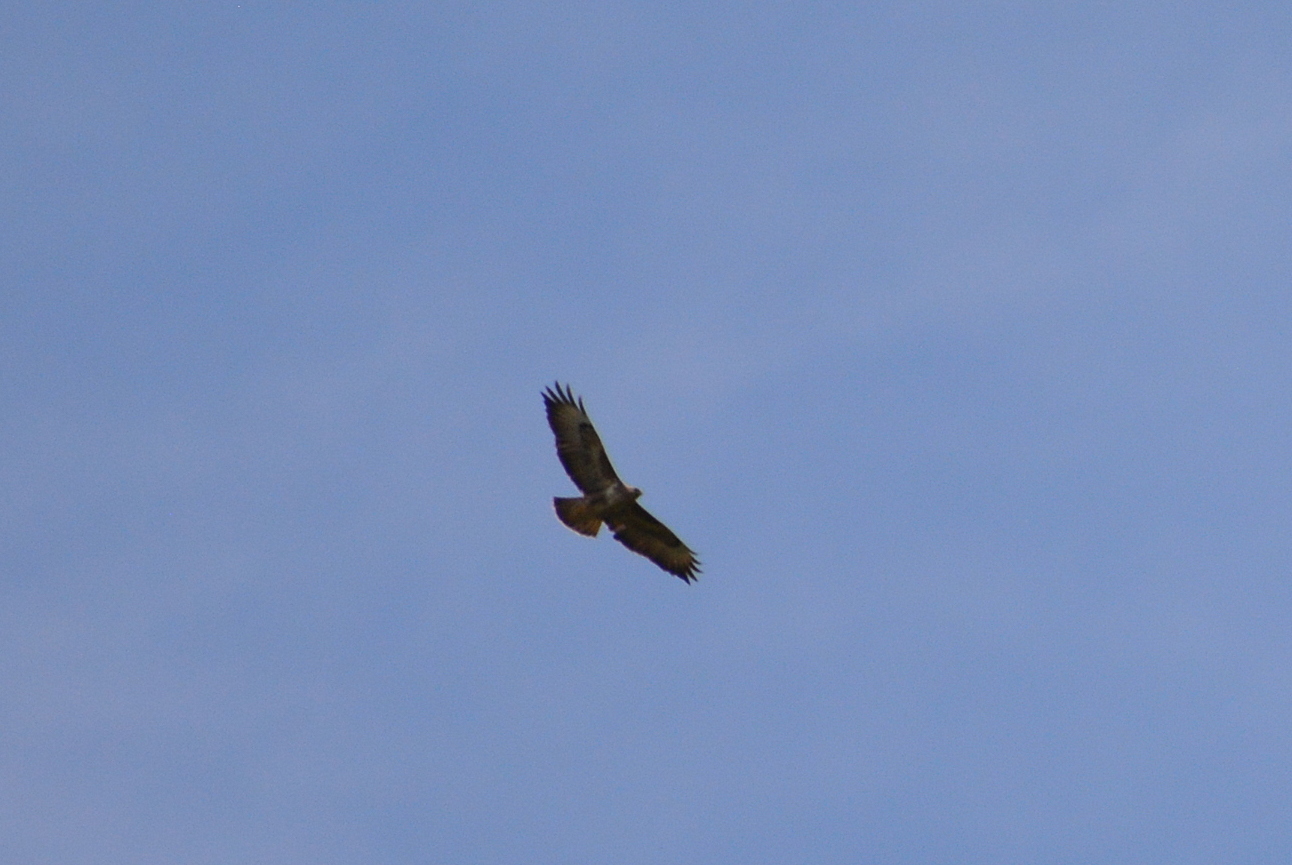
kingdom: Animalia
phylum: Chordata
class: Aves
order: Accipitriformes
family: Accipitridae
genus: Buteo
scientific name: Buteo buteo
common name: Common buzzard
